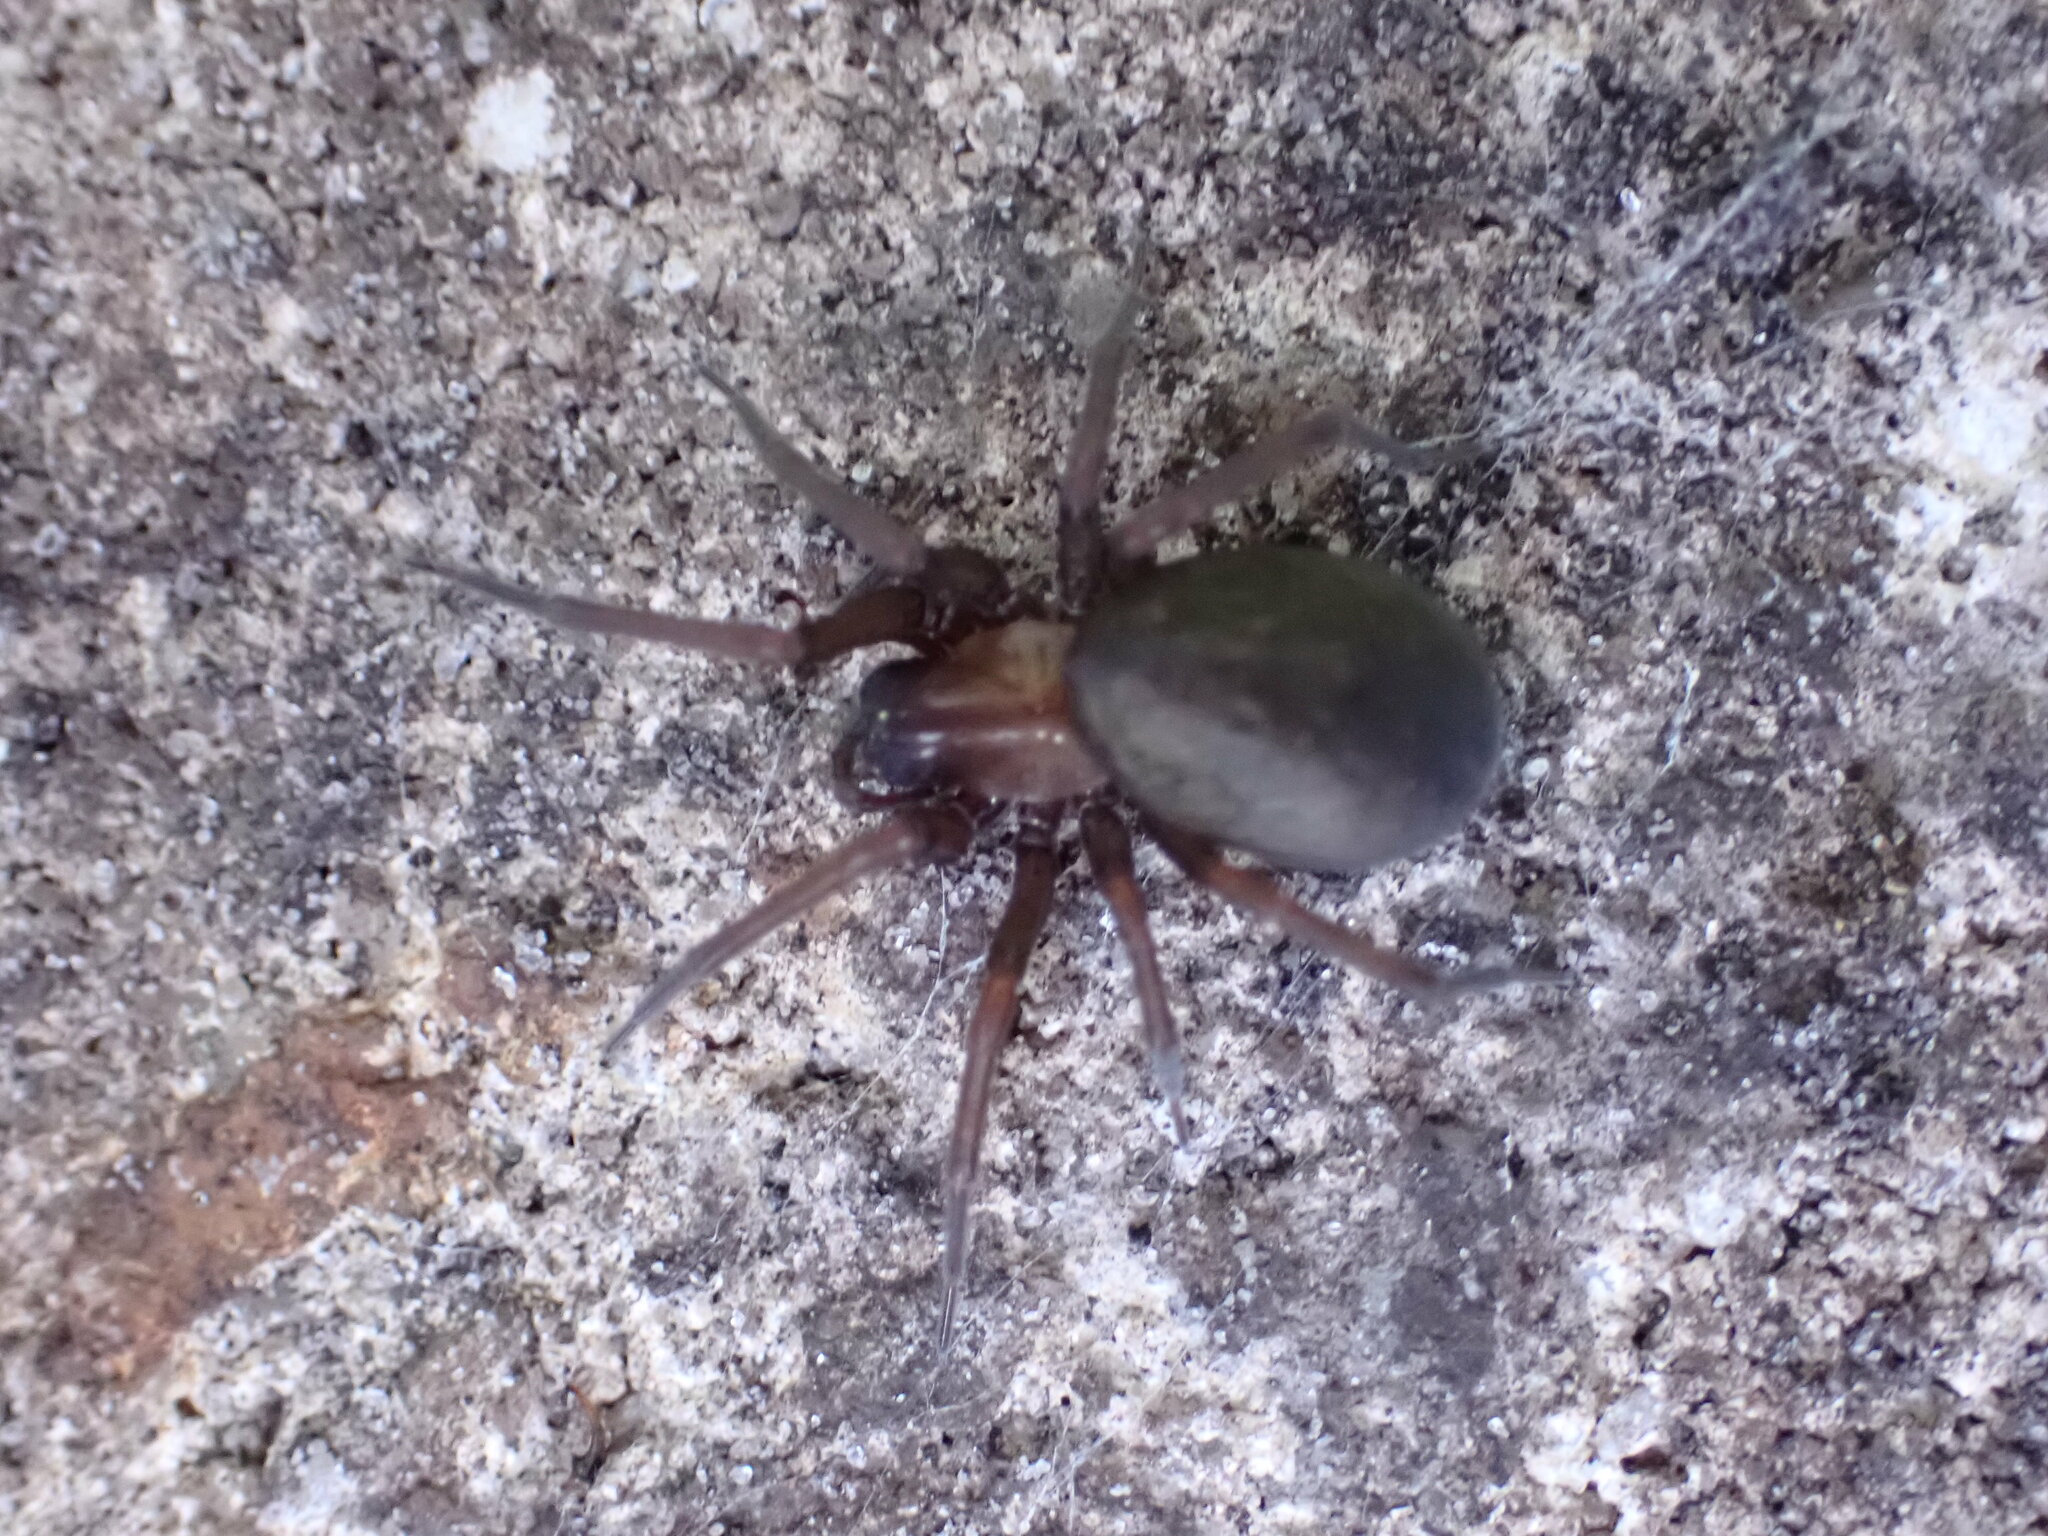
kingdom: Animalia
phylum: Arthropoda
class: Arachnida
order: Araneae
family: Desidae
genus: Metaltella
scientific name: Metaltella simoni
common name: Cribellate spider
